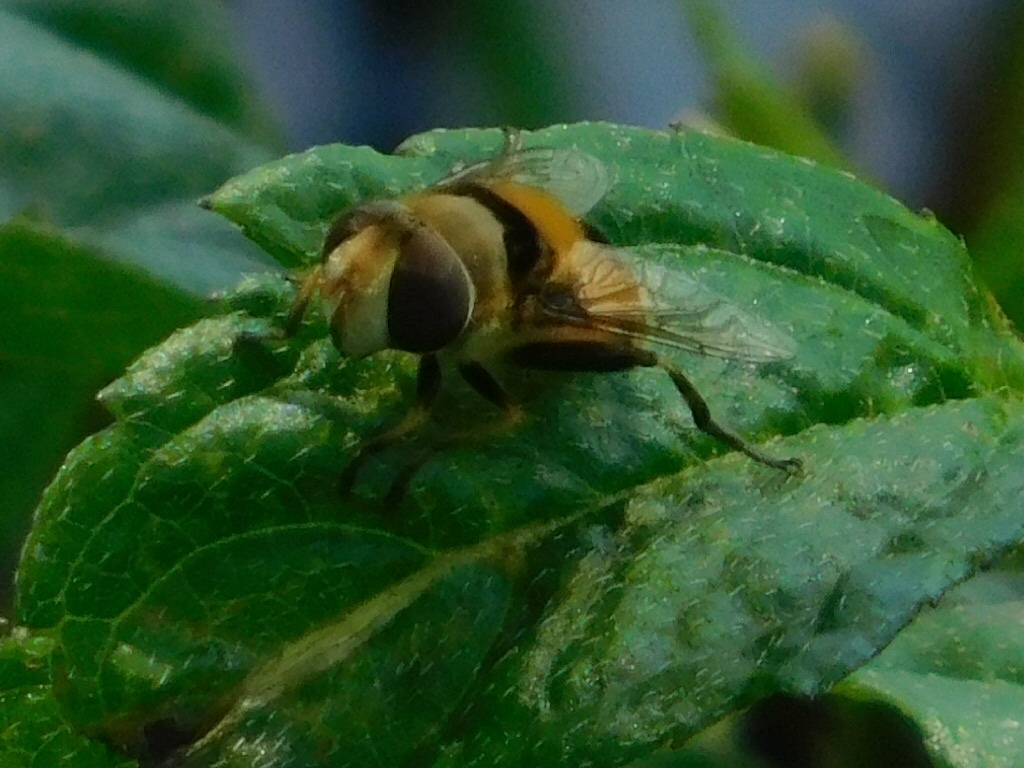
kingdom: Animalia
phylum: Arthropoda
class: Insecta
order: Diptera
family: Syrphidae
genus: Palpada
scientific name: Palpada pusilla
